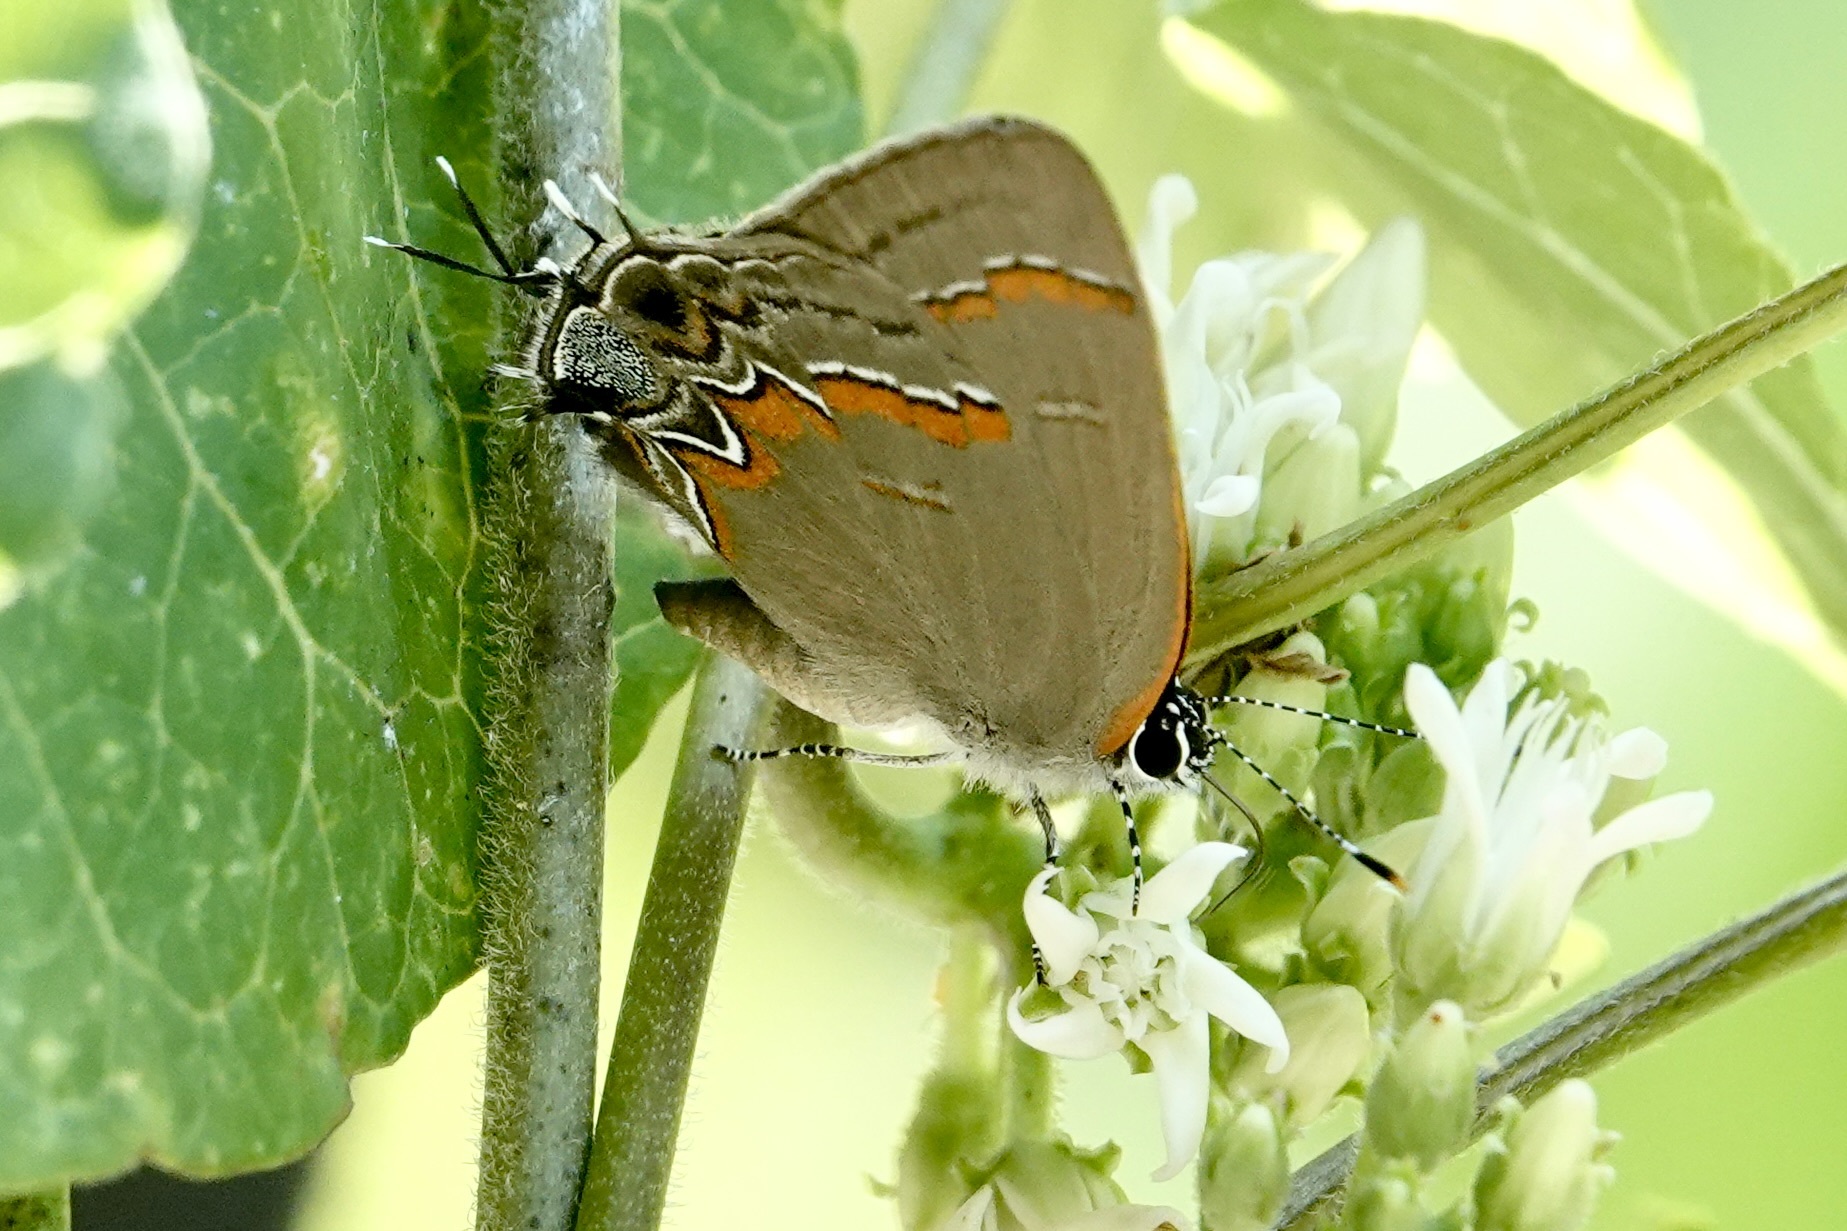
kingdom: Animalia
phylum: Arthropoda
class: Insecta
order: Lepidoptera
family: Lycaenidae
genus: Calycopis
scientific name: Calycopis cecrops
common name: Red-banded hairstreak
